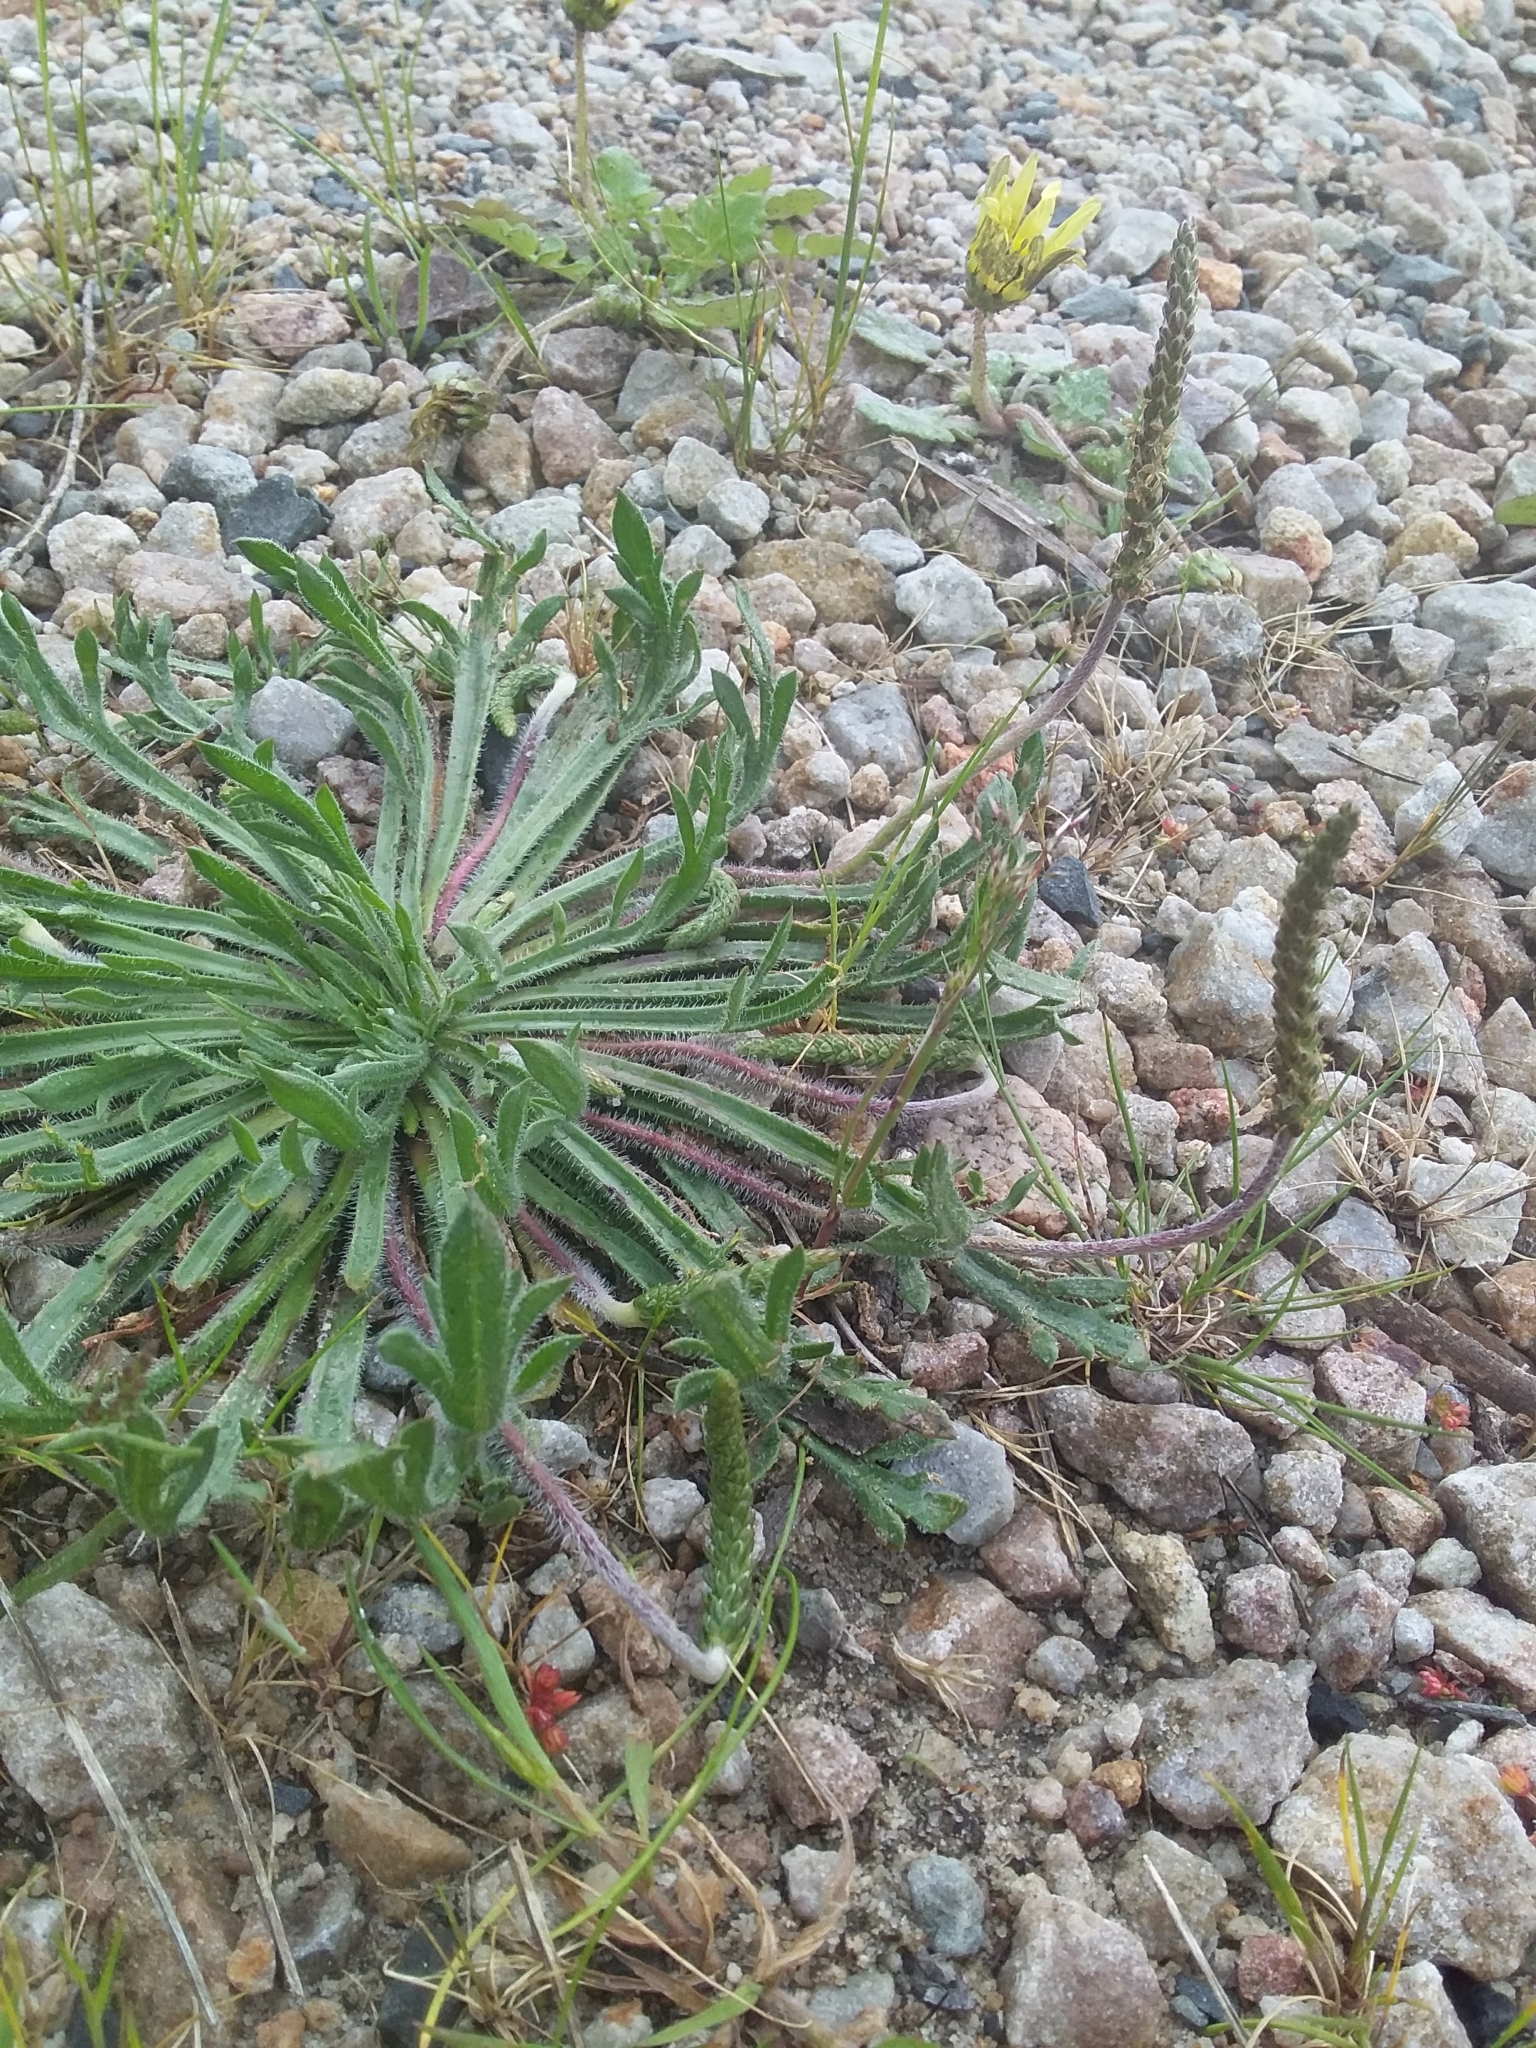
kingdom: Plantae
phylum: Tracheophyta
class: Magnoliopsida
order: Lamiales
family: Plantaginaceae
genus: Plantago
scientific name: Plantago coronopus
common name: Buck's-horn plantain
